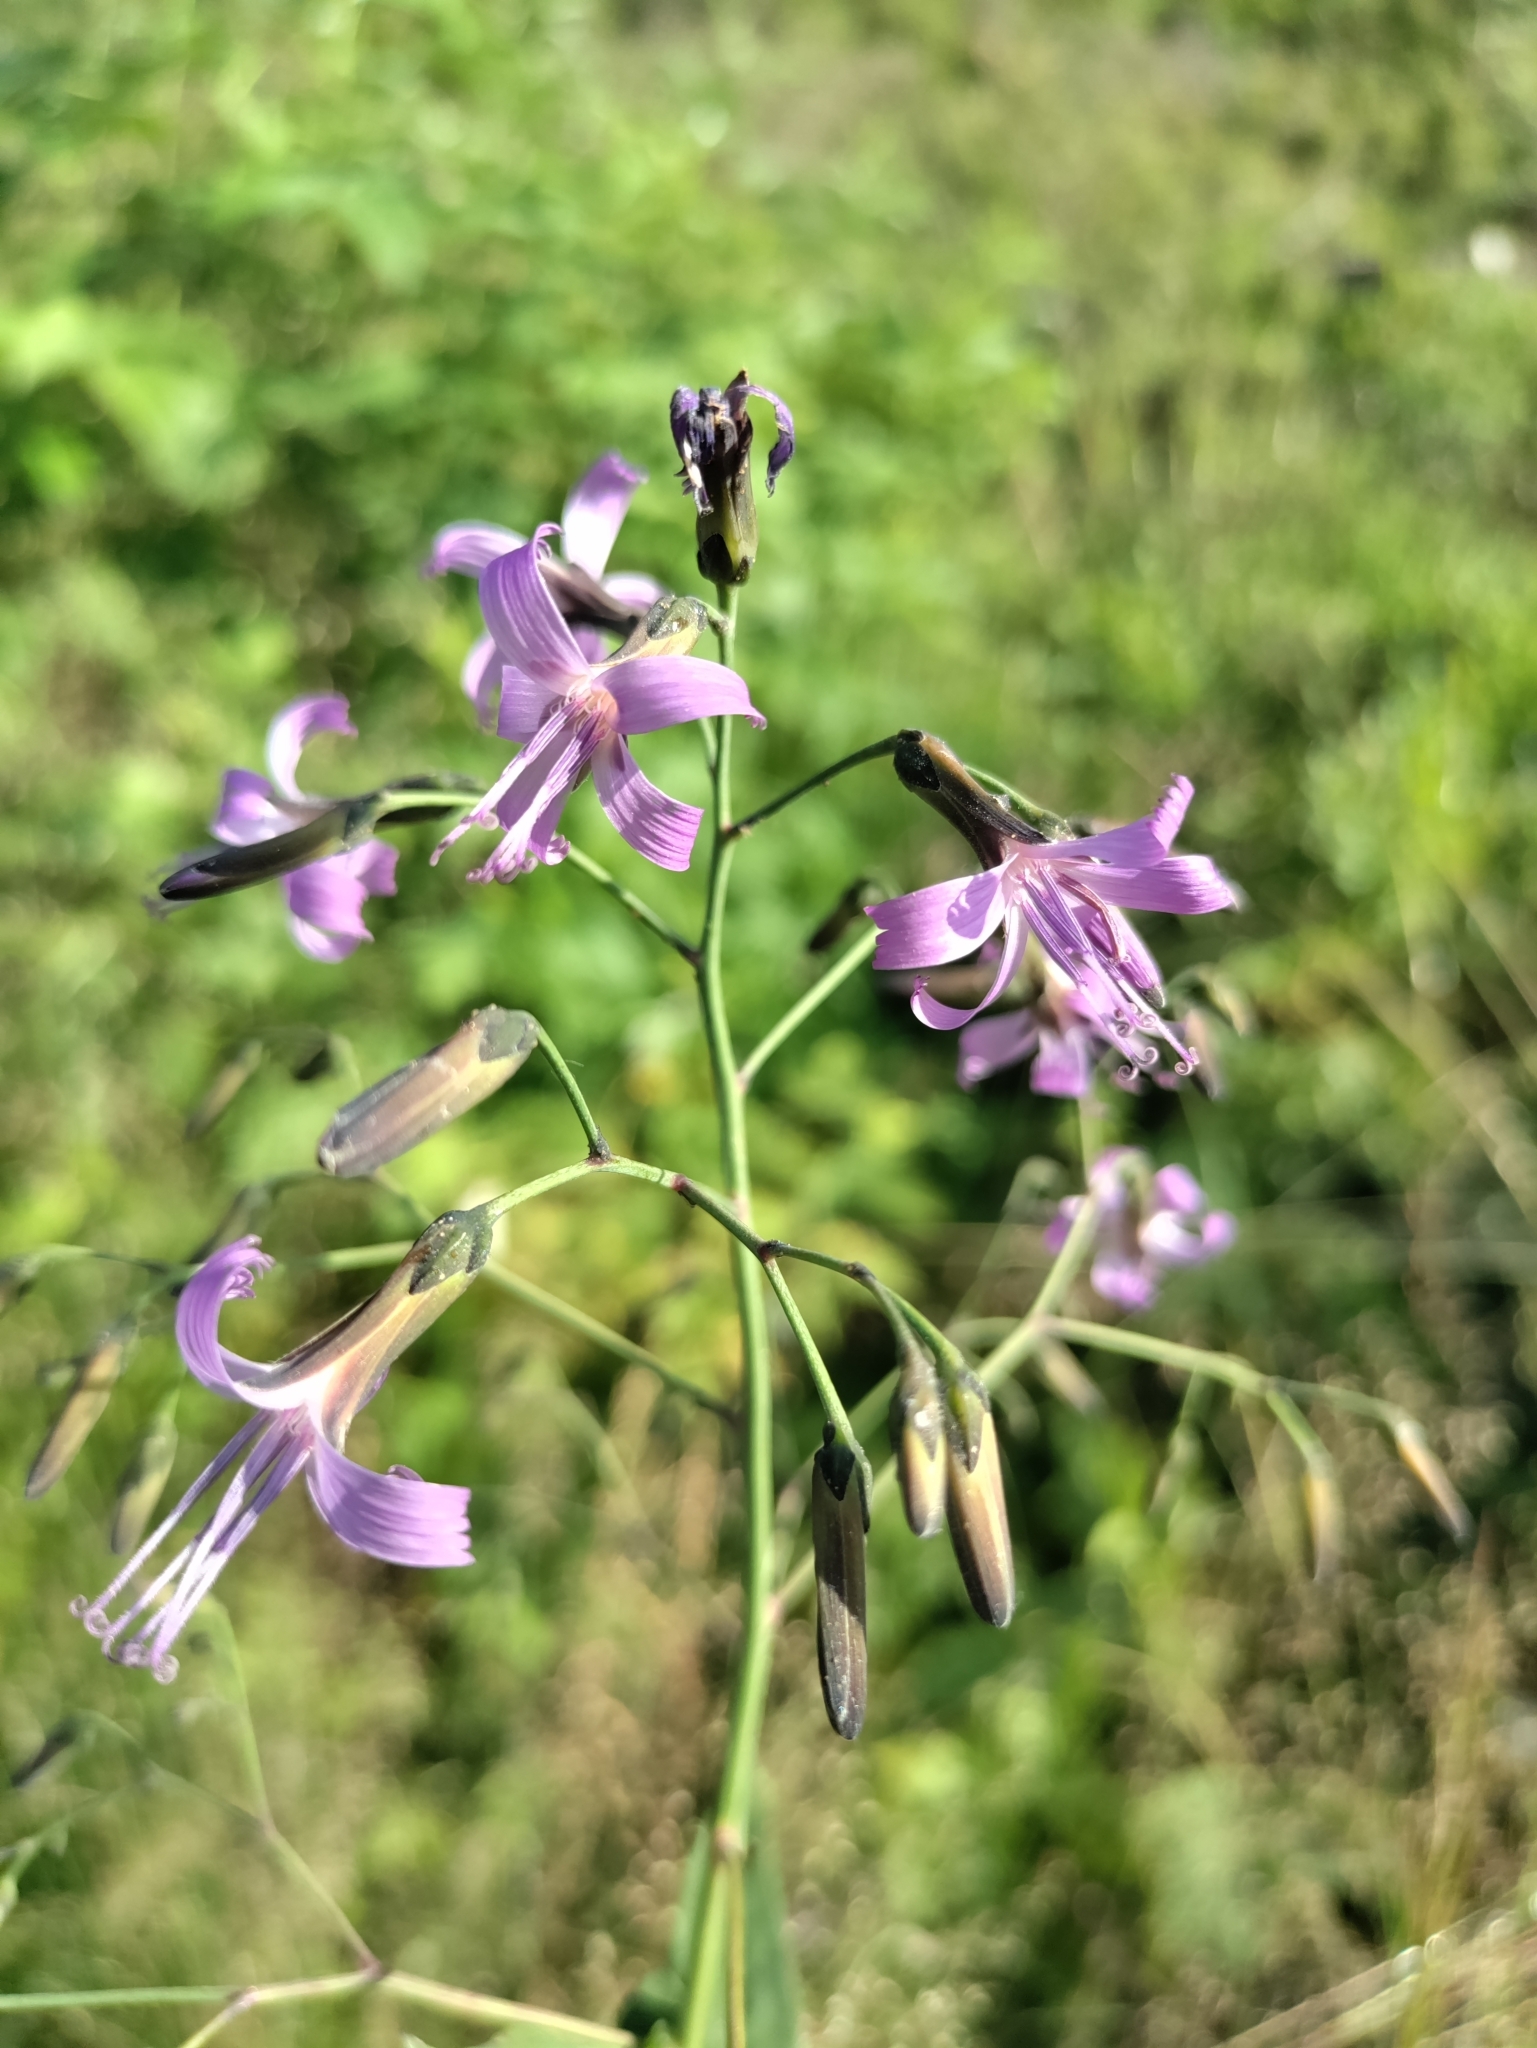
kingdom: Plantae
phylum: Tracheophyta
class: Magnoliopsida
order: Asterales
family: Asteraceae
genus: Prenanthes
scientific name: Prenanthes purpurea
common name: Purple lettuce
